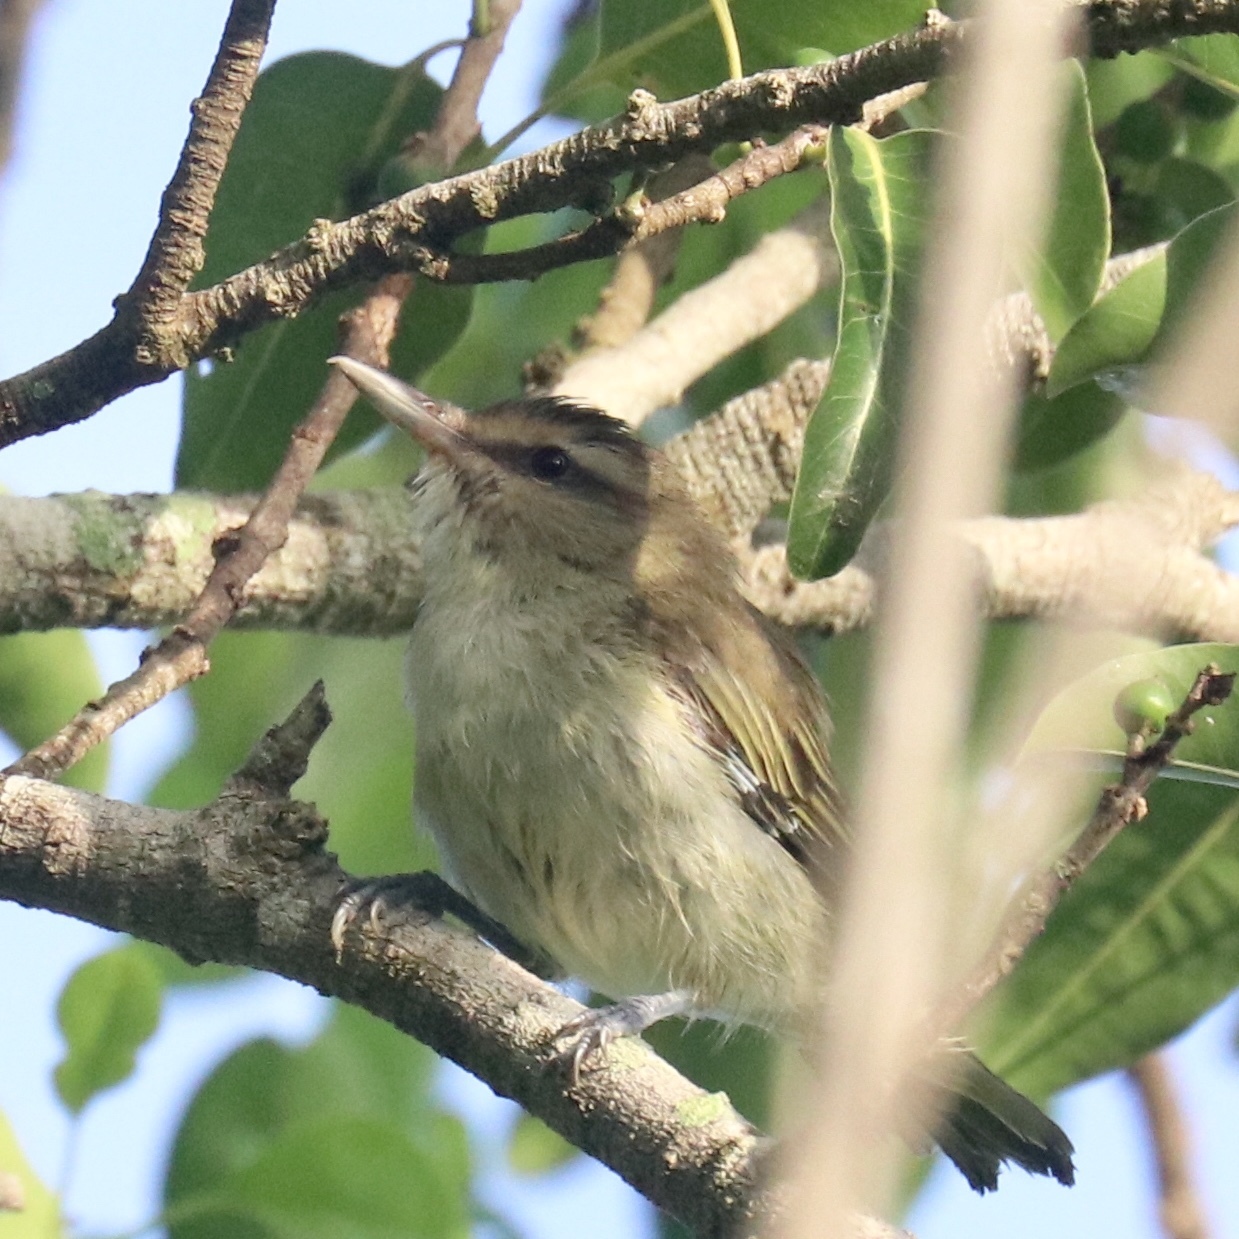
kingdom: Animalia
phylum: Chordata
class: Aves
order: Passeriformes
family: Vireonidae
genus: Vireo
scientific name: Vireo altiloquus
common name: Black-whiskered vireo
